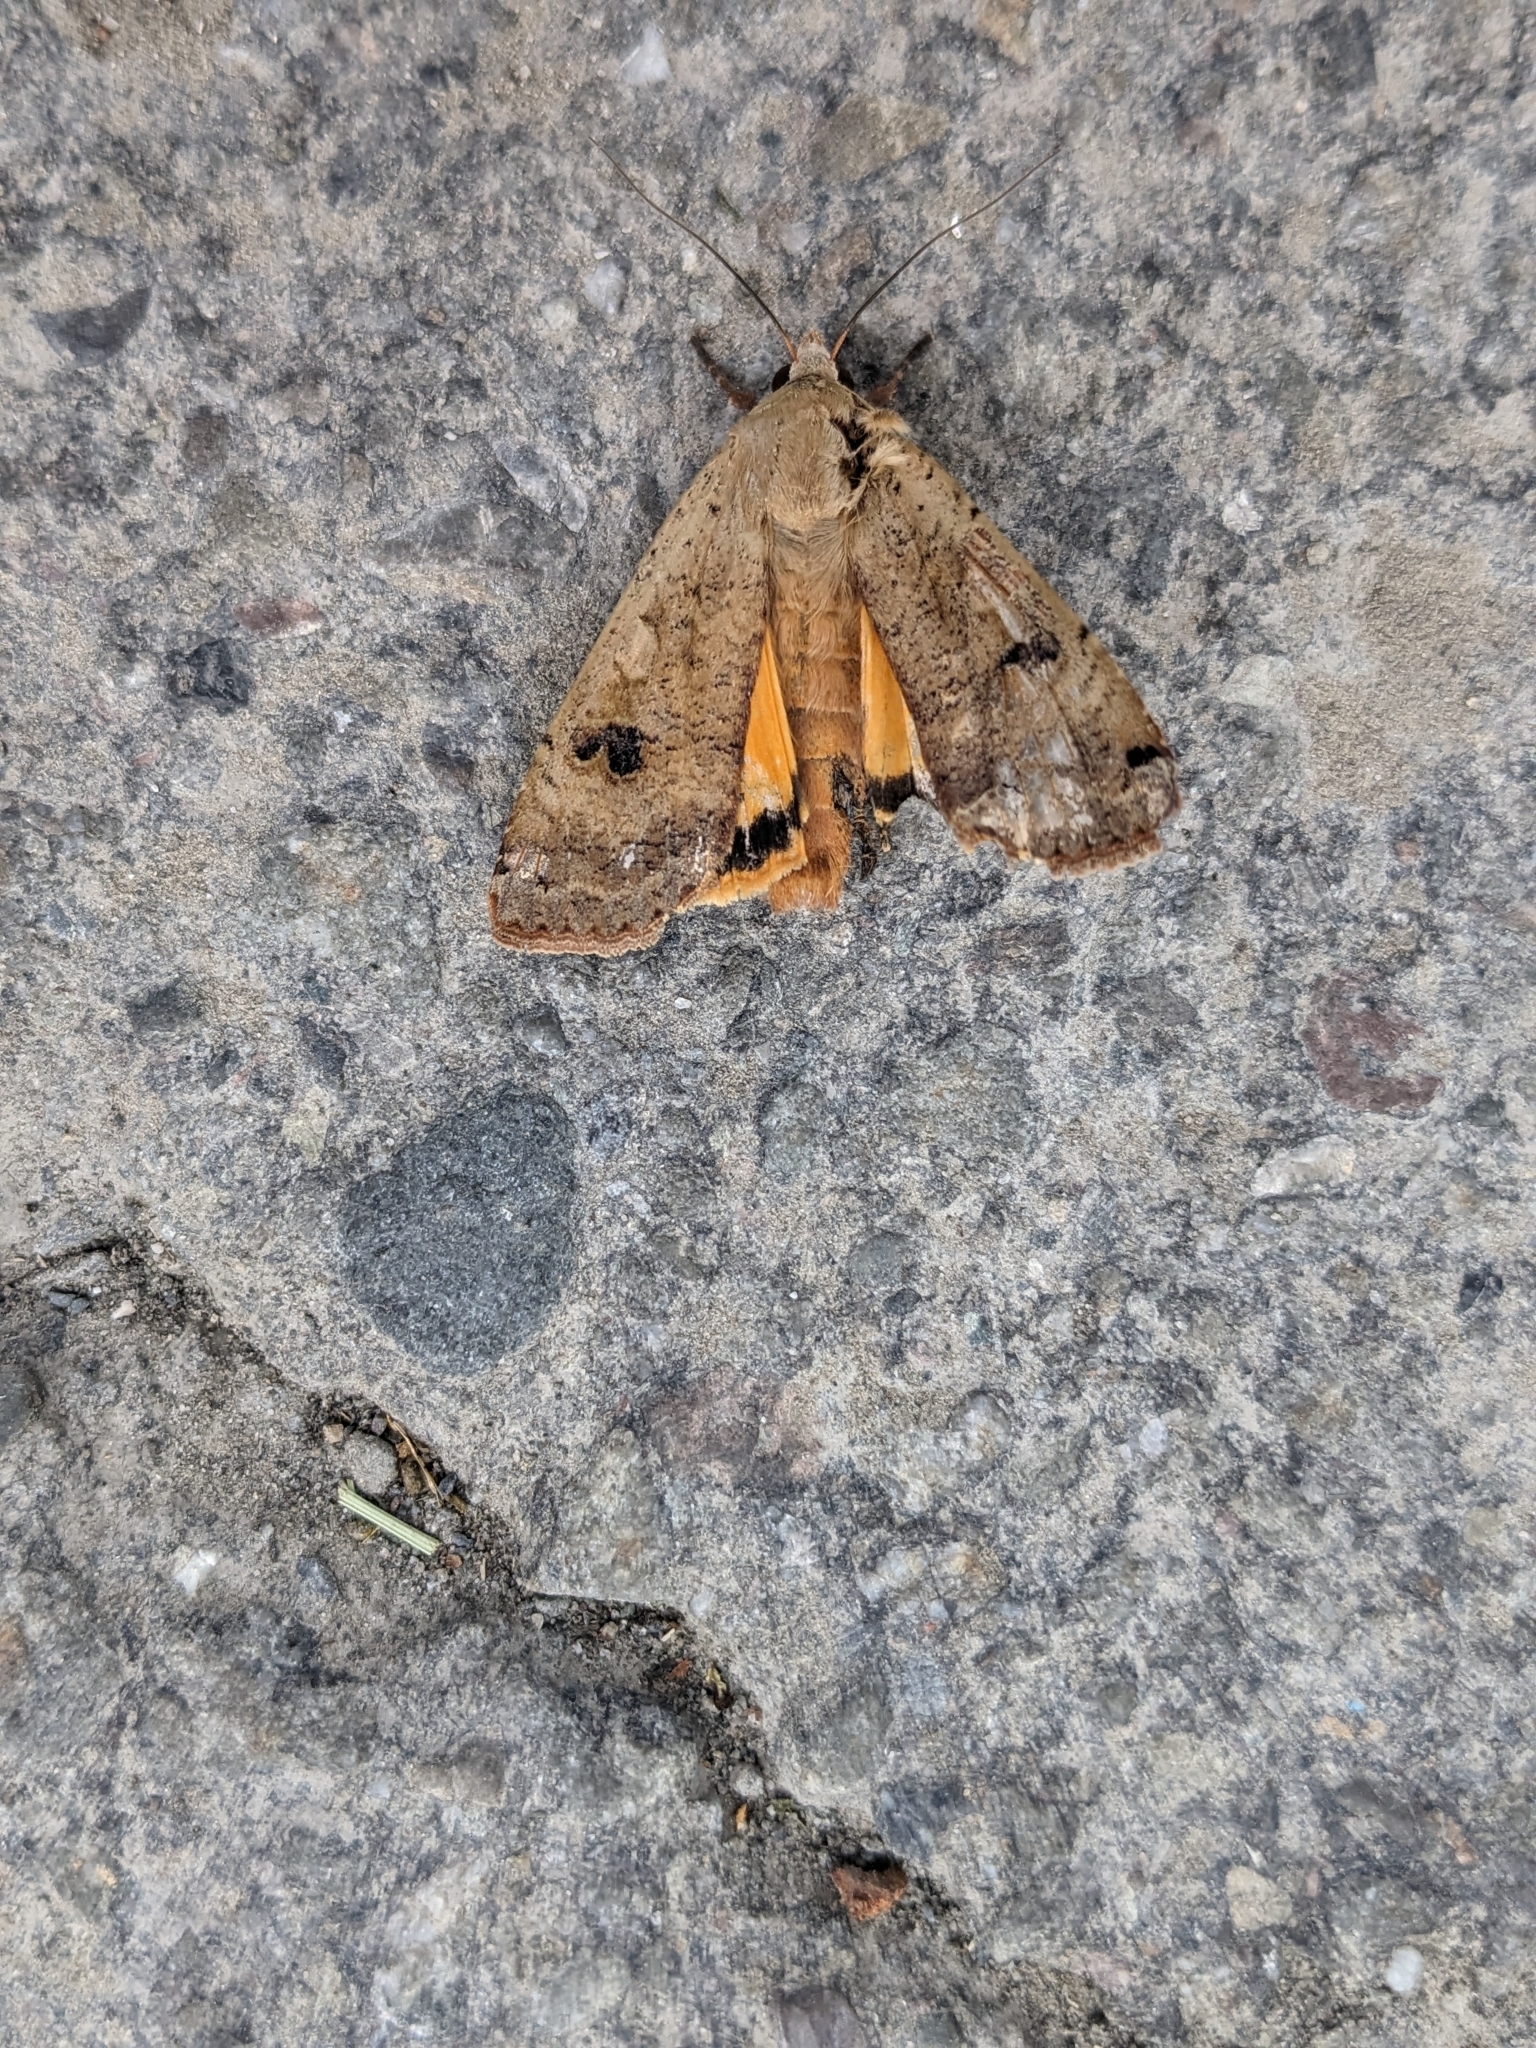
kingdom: Animalia
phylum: Arthropoda
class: Insecta
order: Lepidoptera
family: Noctuidae
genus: Noctua
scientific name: Noctua pronuba
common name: Large yellow underwing
